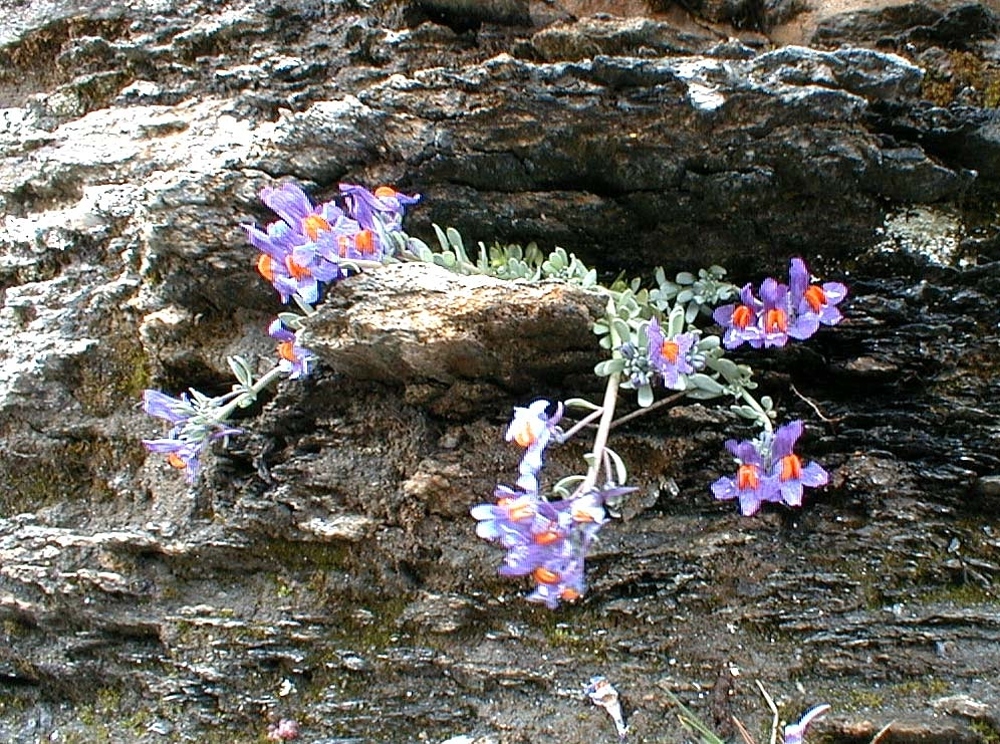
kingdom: Plantae
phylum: Tracheophyta
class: Magnoliopsida
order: Lamiales
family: Plantaginaceae
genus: Linaria
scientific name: Linaria alpina
